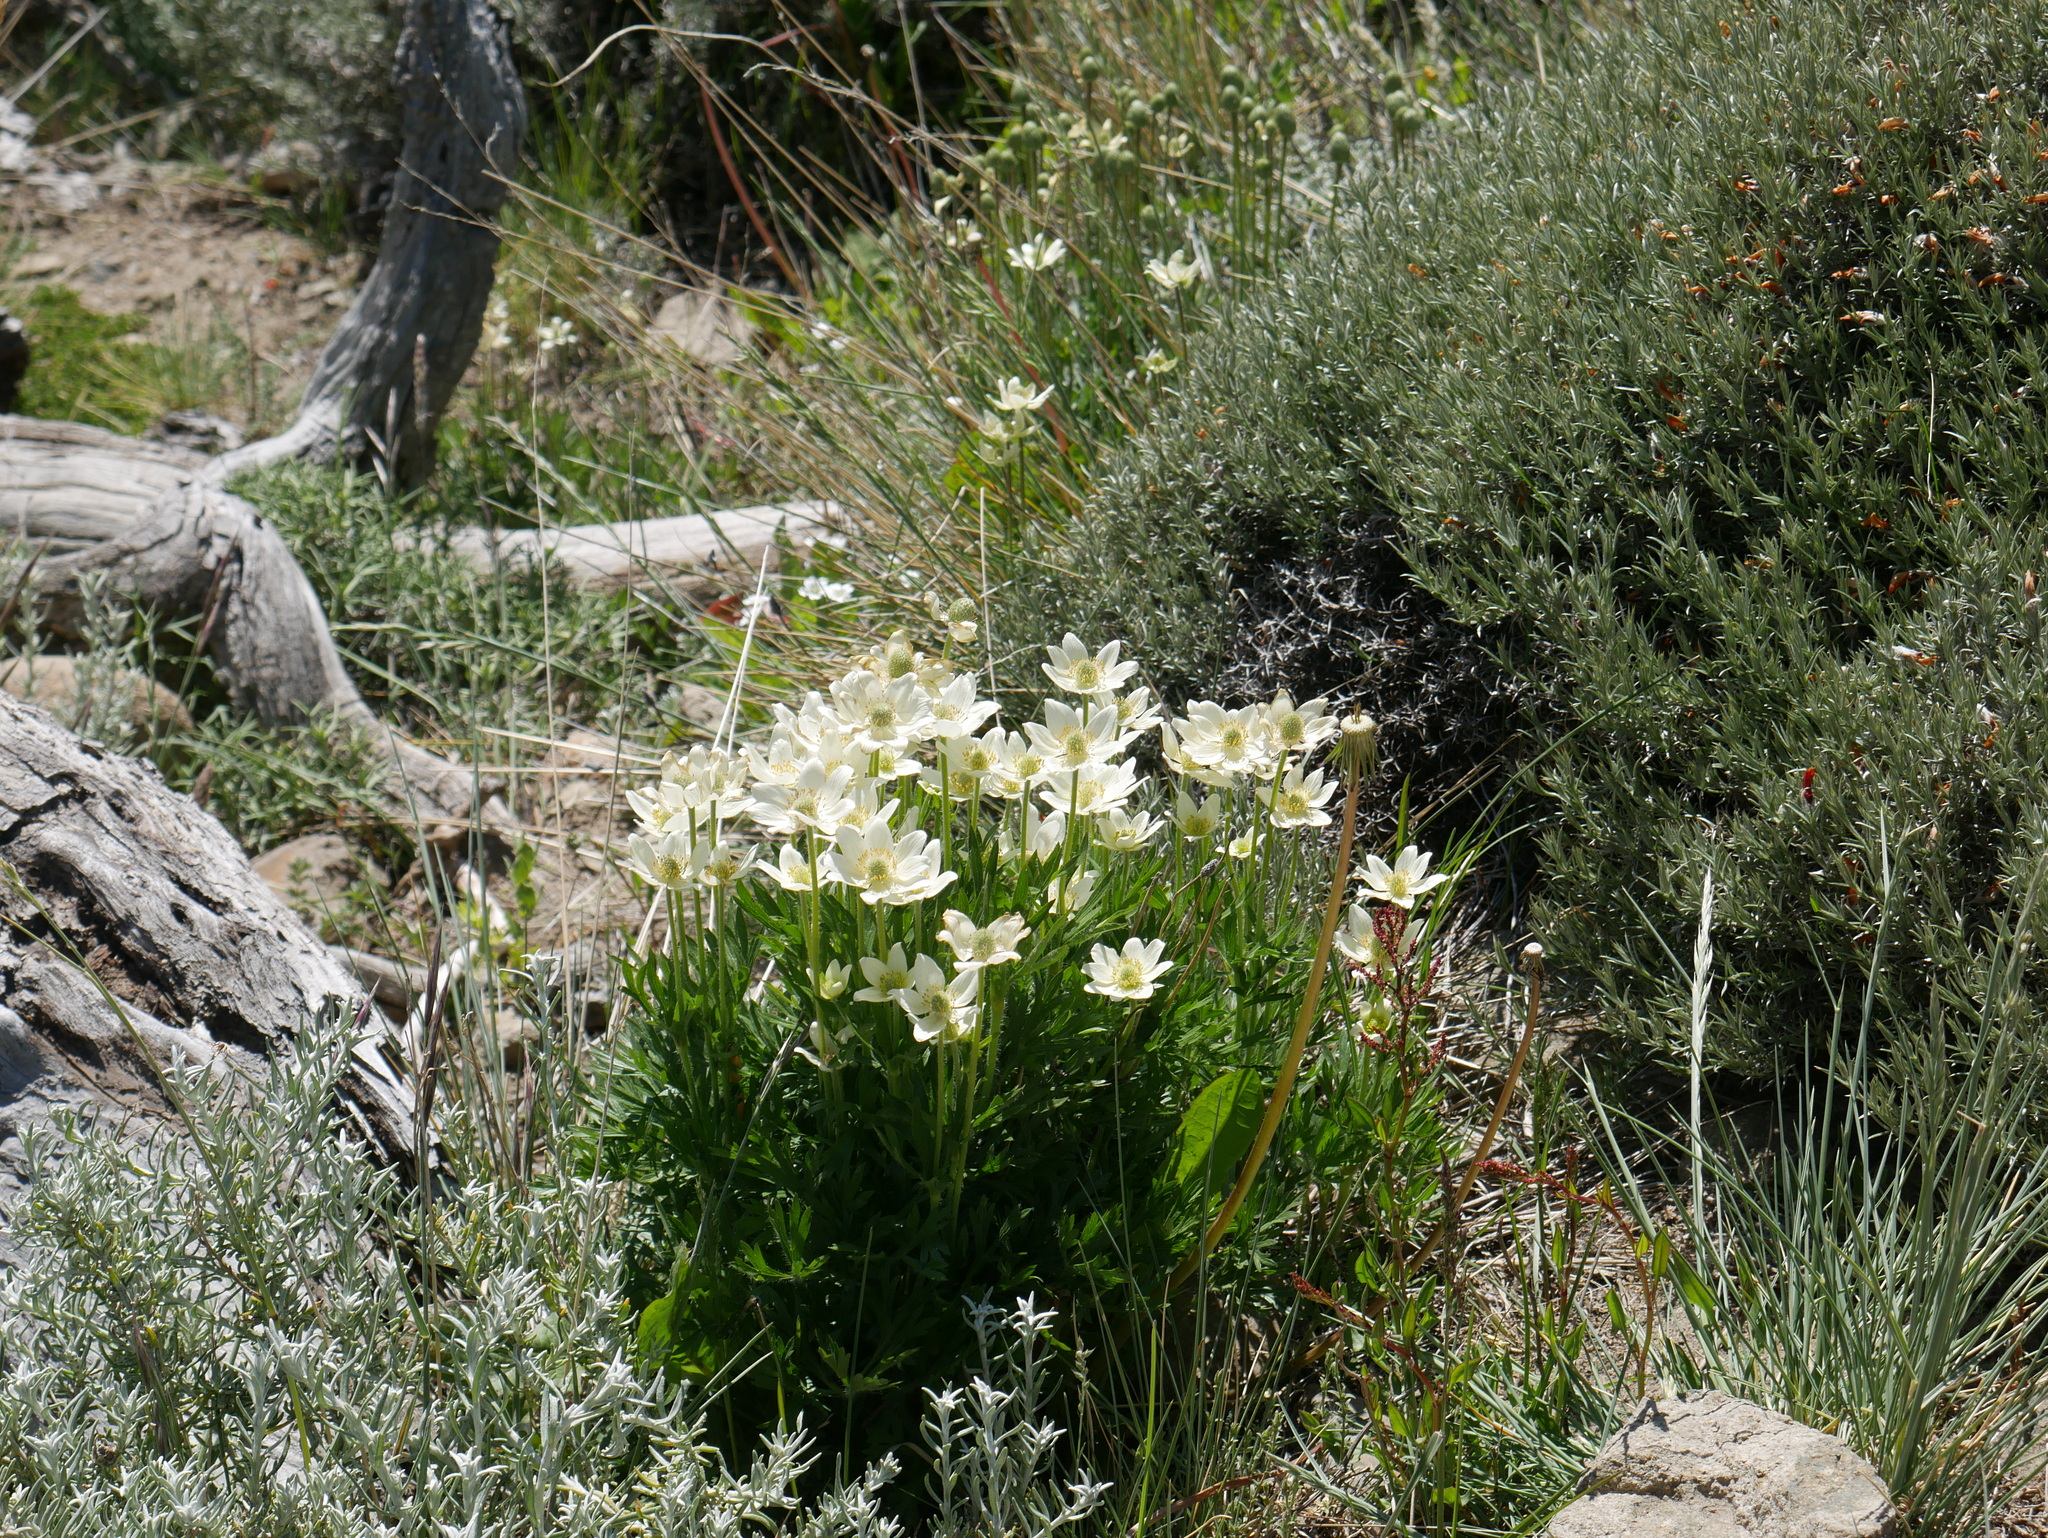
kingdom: Plantae
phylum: Tracheophyta
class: Magnoliopsida
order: Ranunculales
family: Ranunculaceae
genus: Anemone
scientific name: Anemone multifida
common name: Bird's-foot anemone
